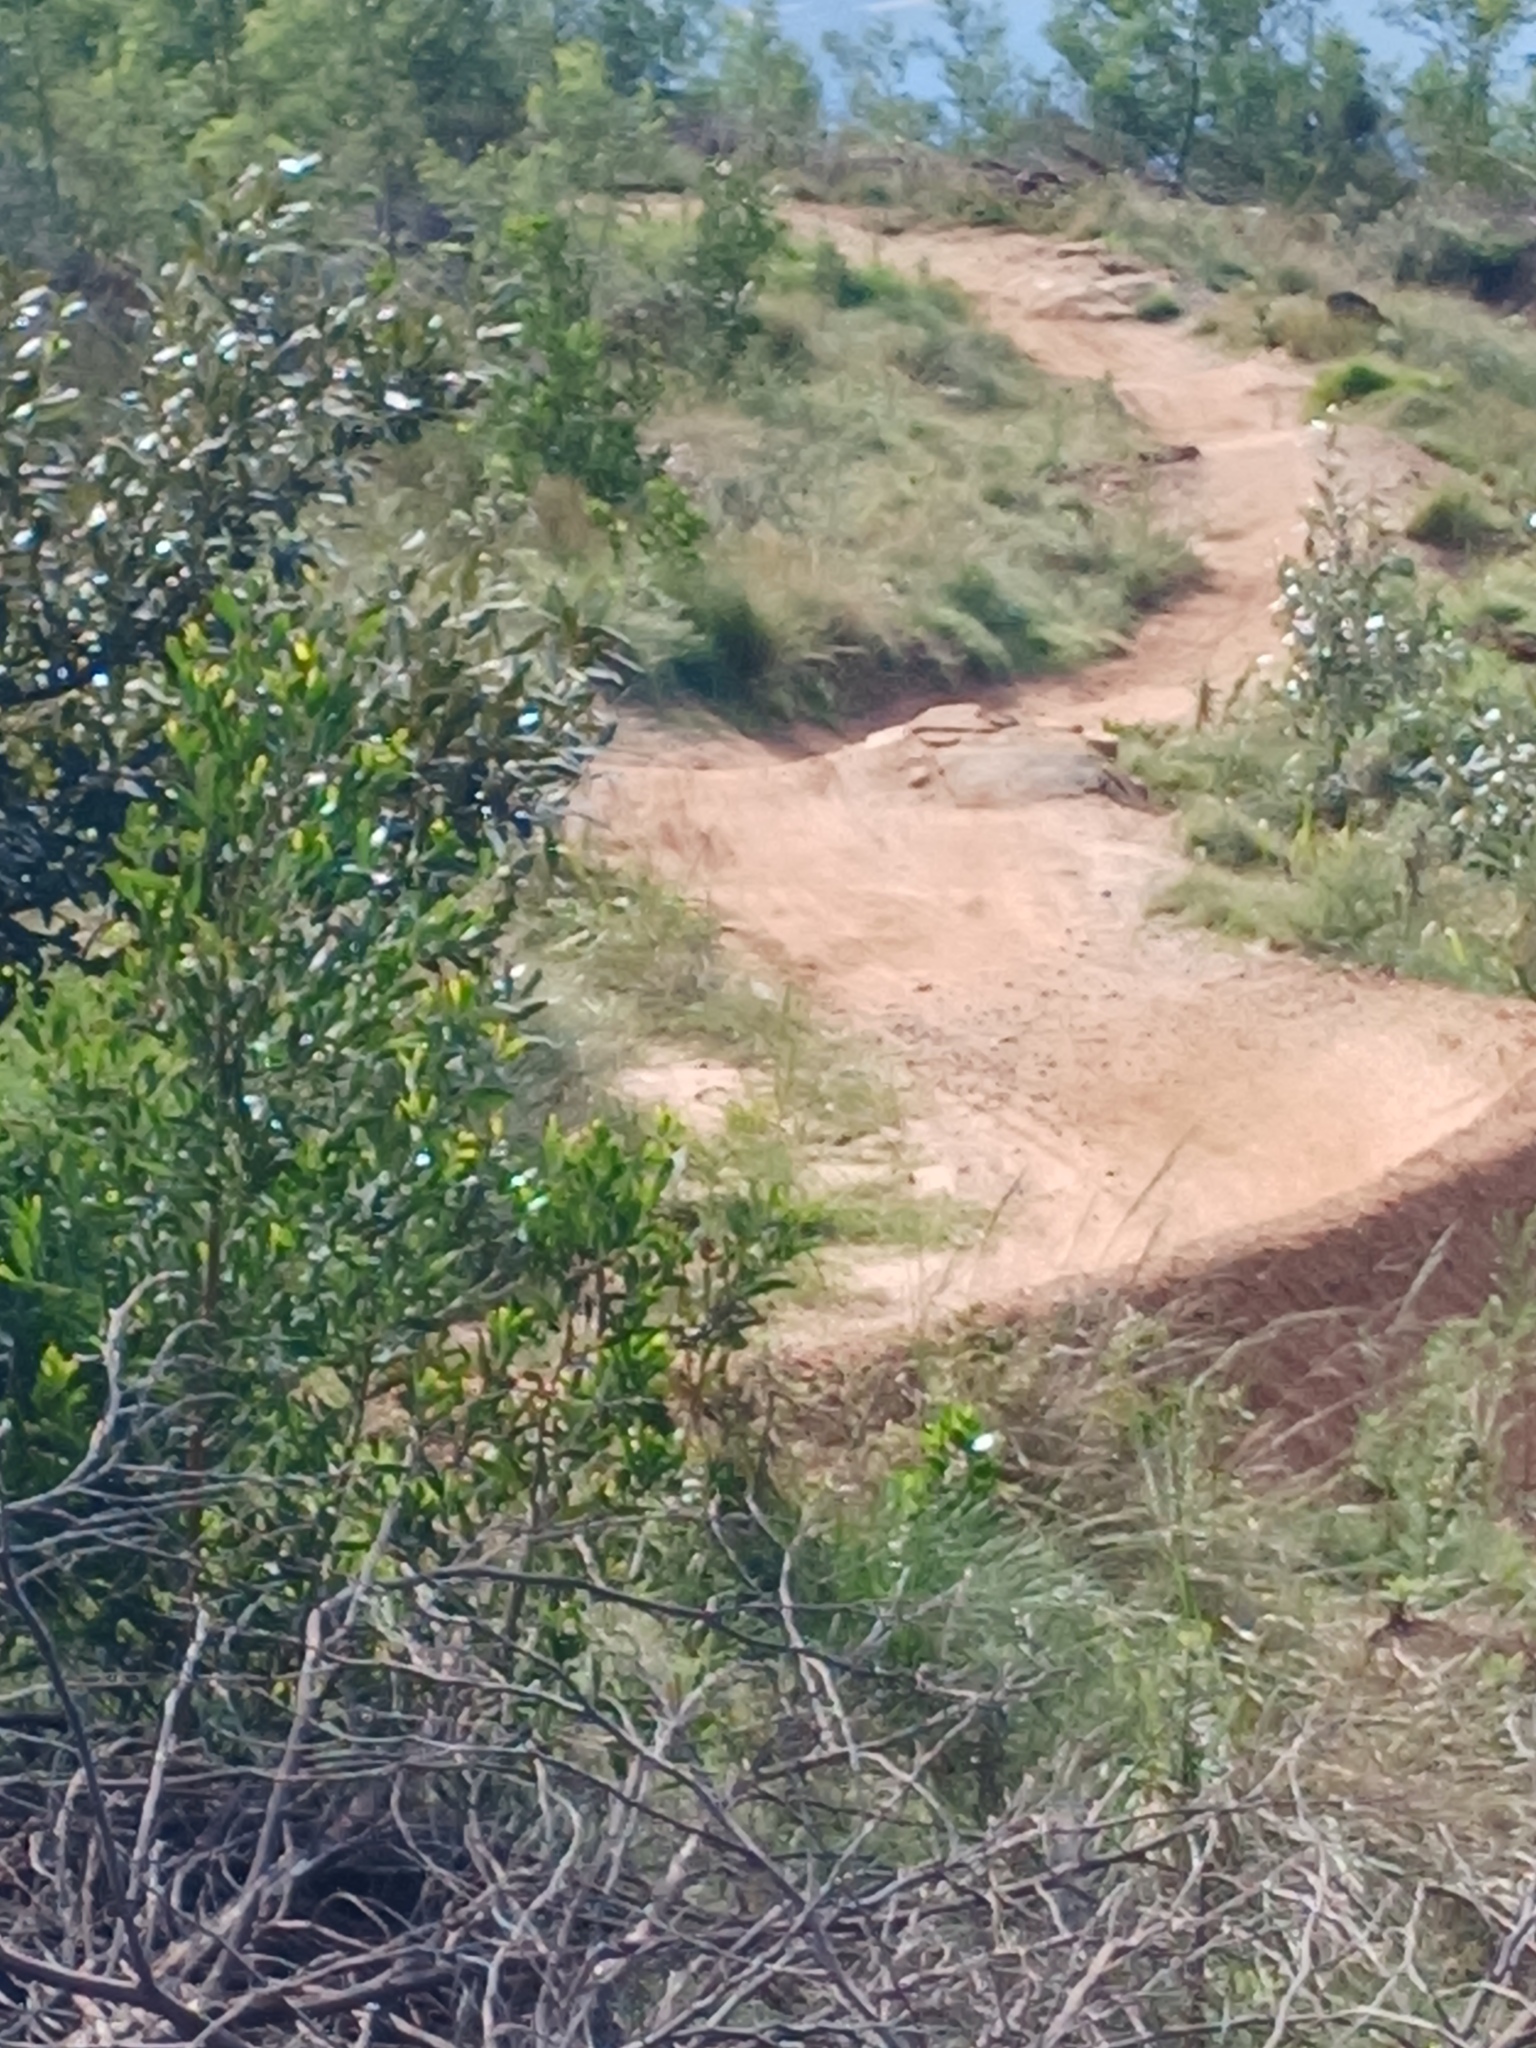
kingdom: Plantae
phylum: Tracheophyta
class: Magnoliopsida
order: Fabales
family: Fabaceae
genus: Acacia
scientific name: Acacia mearnsii
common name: Black wattle
